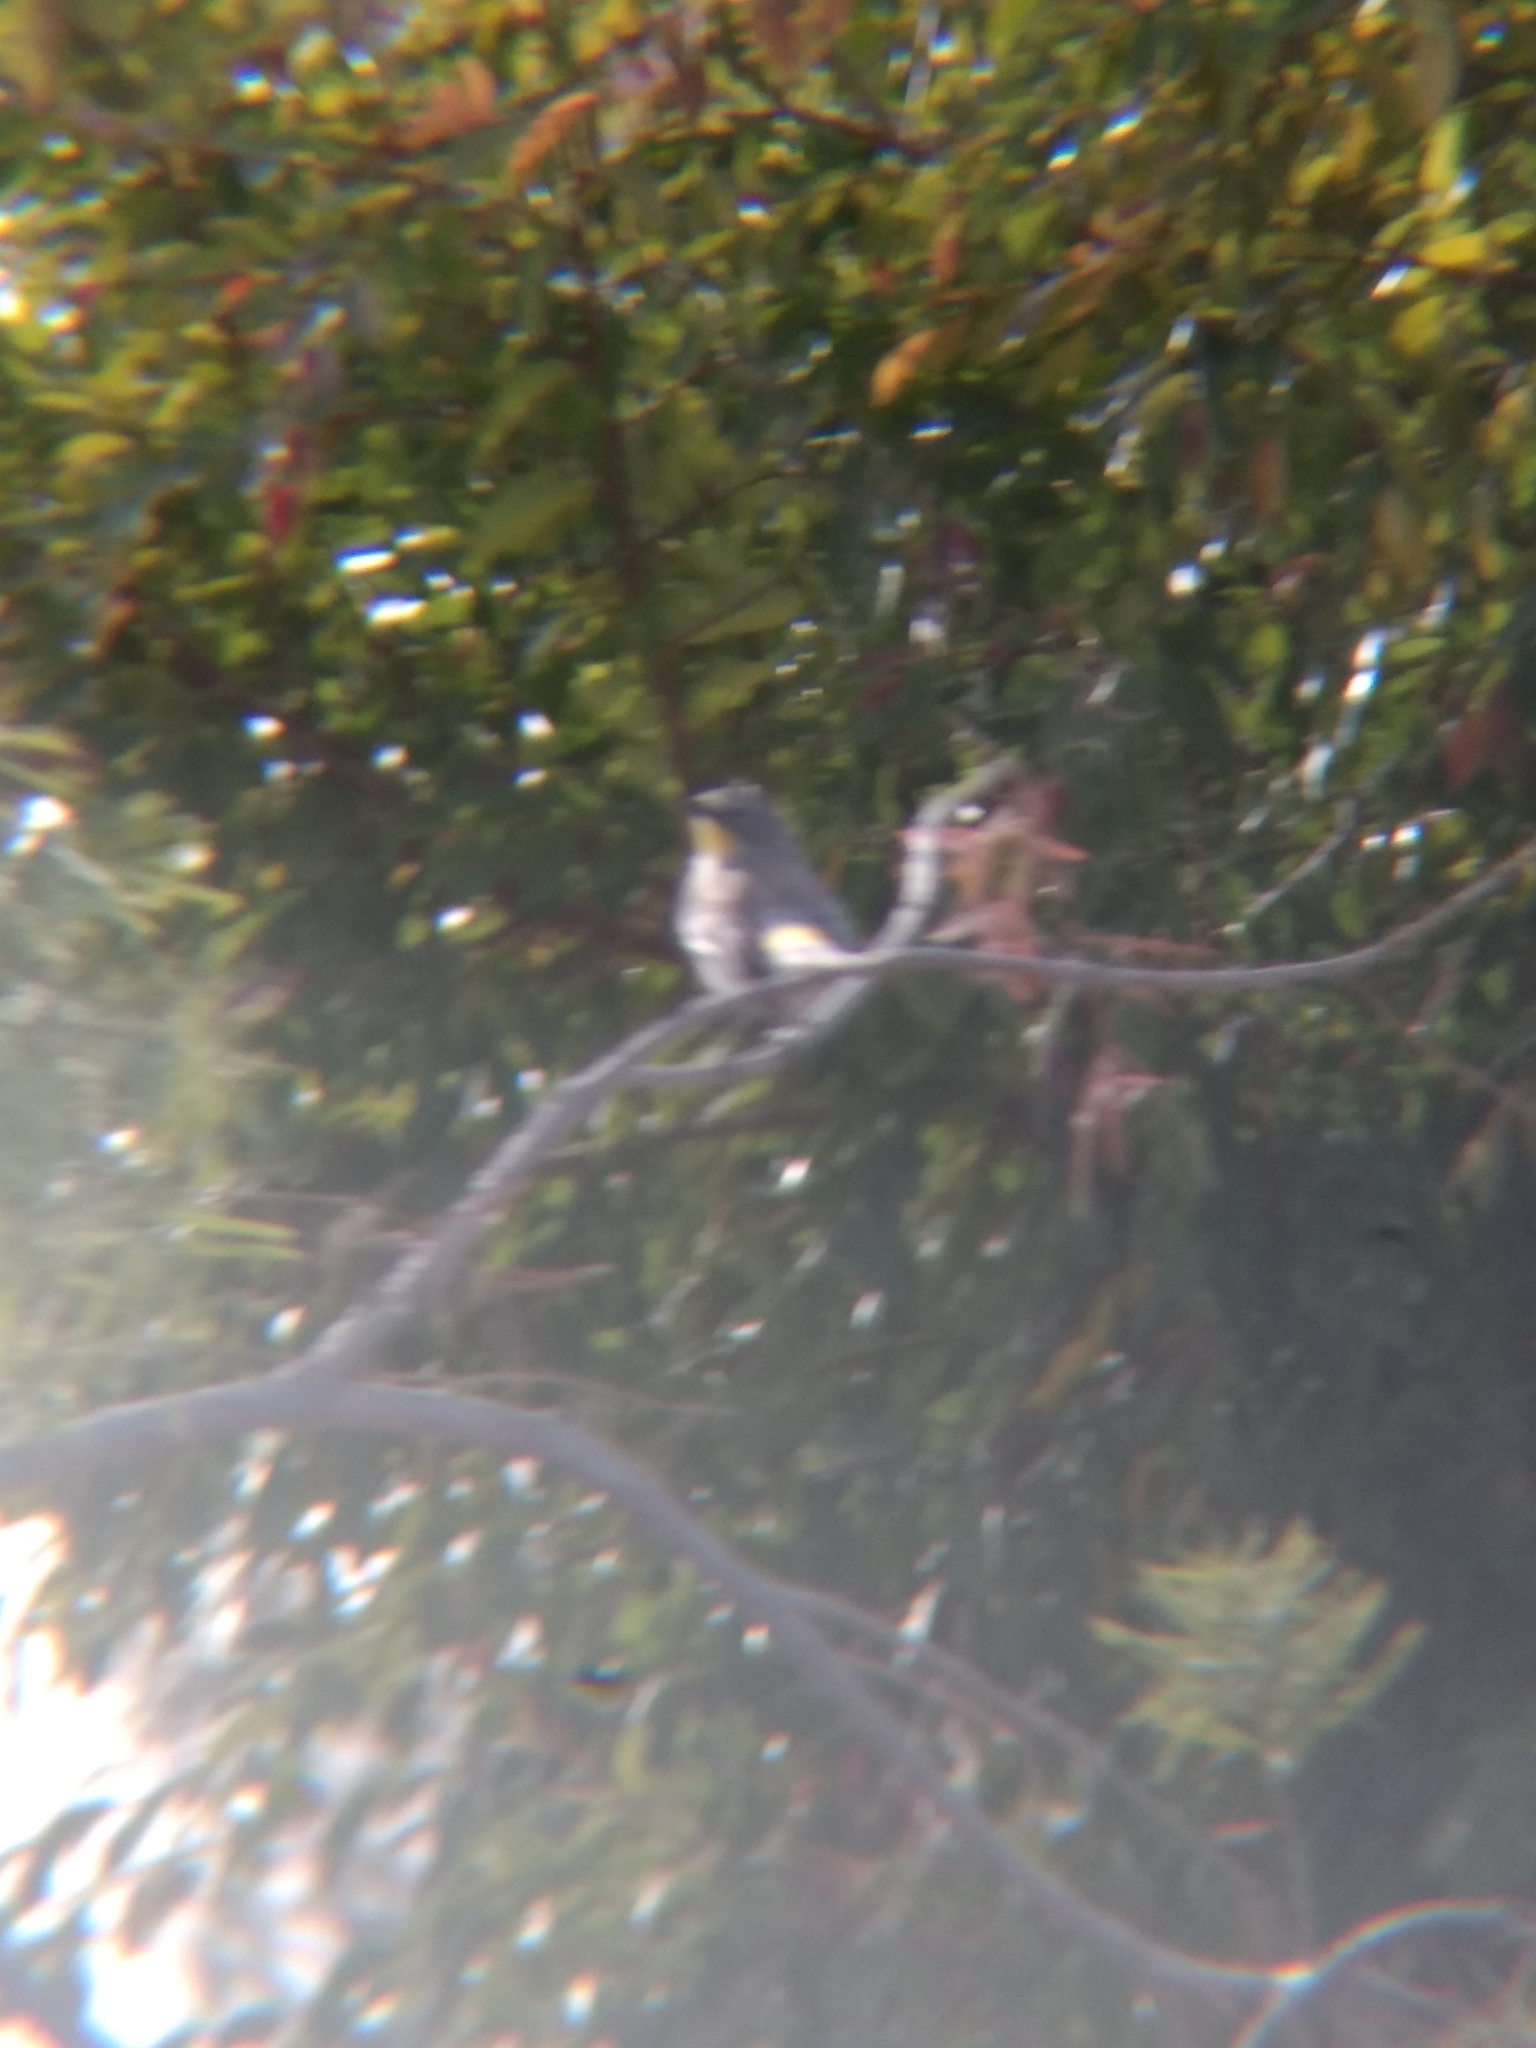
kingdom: Animalia
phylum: Chordata
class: Aves
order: Passeriformes
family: Parulidae
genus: Setophaga
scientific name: Setophaga coronata
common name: Myrtle warbler
